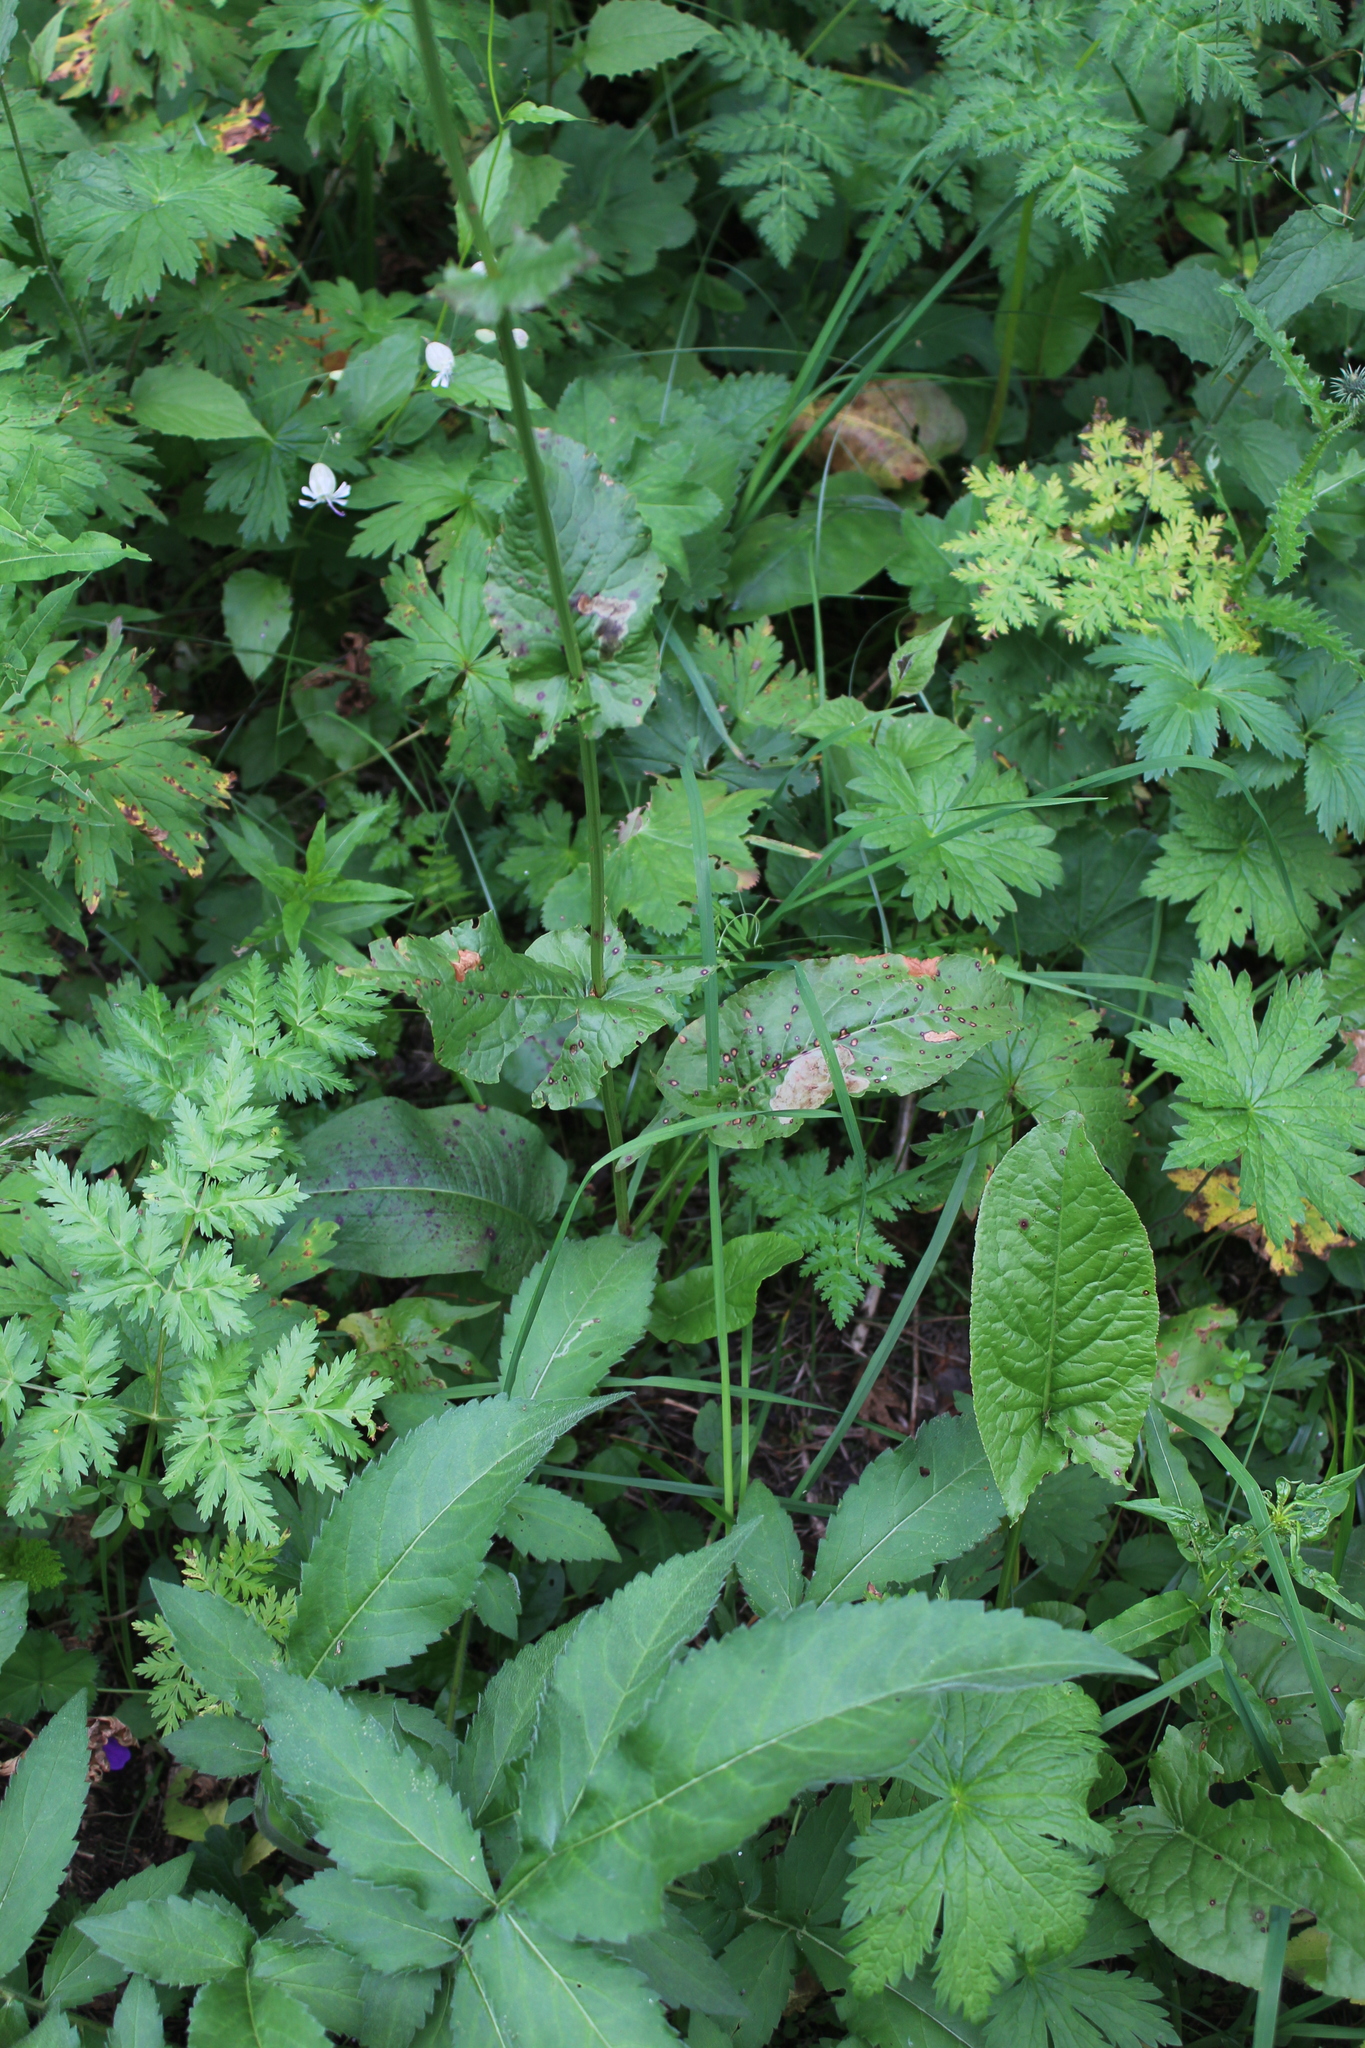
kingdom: Plantae
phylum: Tracheophyta
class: Magnoliopsida
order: Caryophyllales
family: Polygonaceae
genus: Rumex
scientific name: Rumex arifolius
